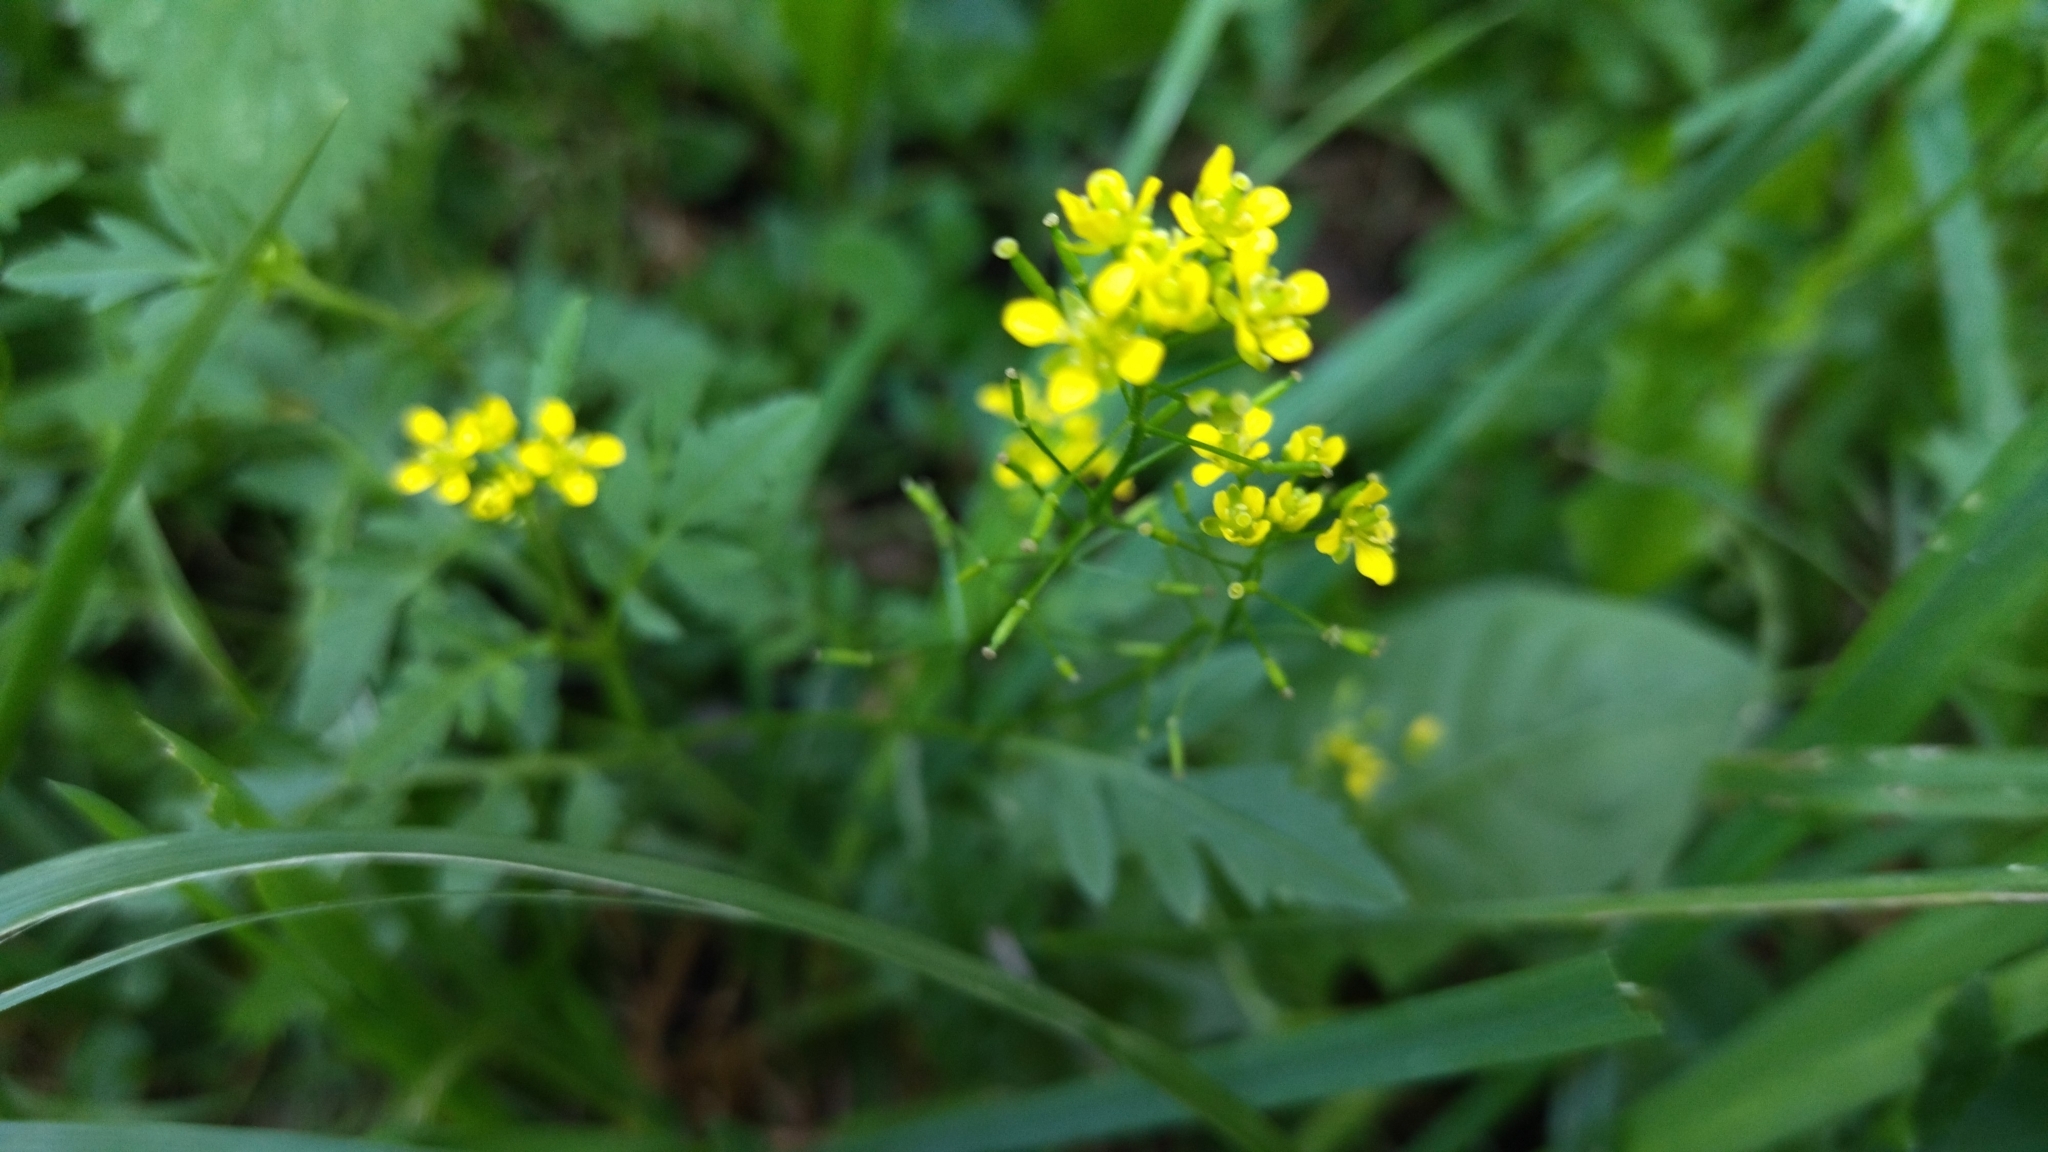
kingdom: Plantae
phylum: Tracheophyta
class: Magnoliopsida
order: Brassicales
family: Brassicaceae
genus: Rorippa
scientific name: Rorippa sylvestris
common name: Creeping yellowcress
